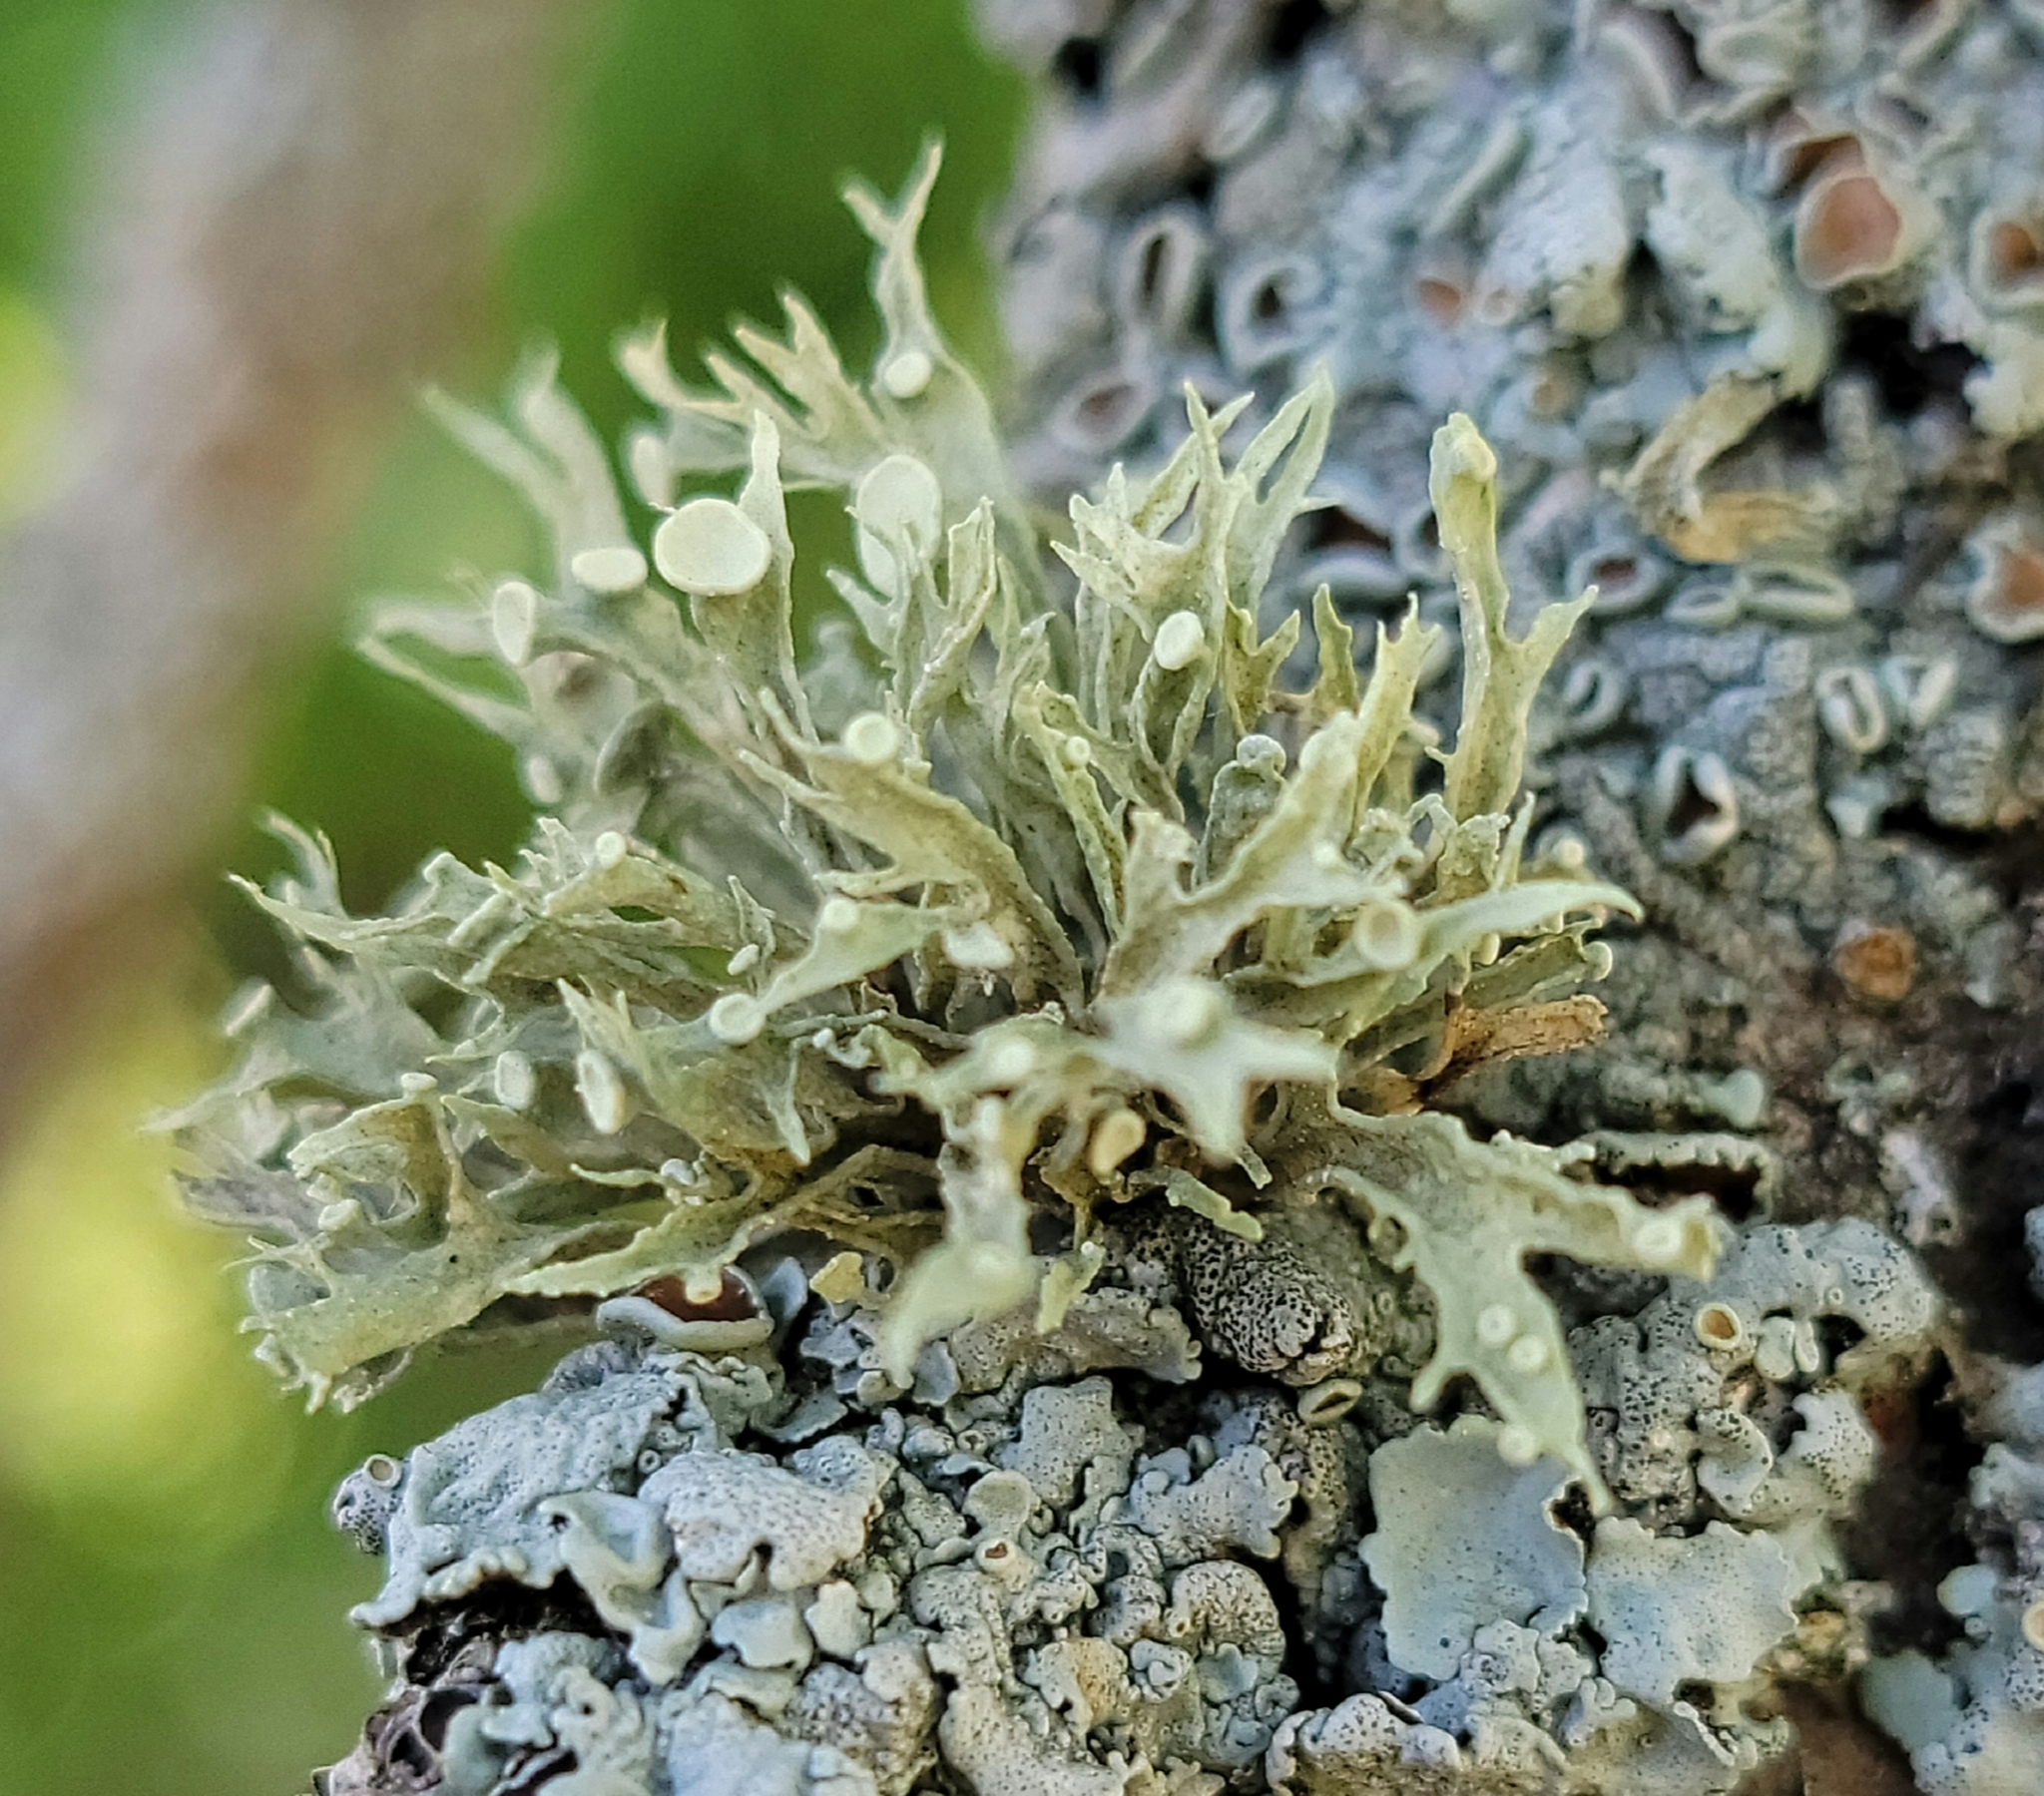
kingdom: Fungi
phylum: Ascomycota
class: Lecanoromycetes
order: Lecanorales
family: Ramalinaceae
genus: Ramalina
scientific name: Ramalina americana
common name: Sinewed bush lichen
